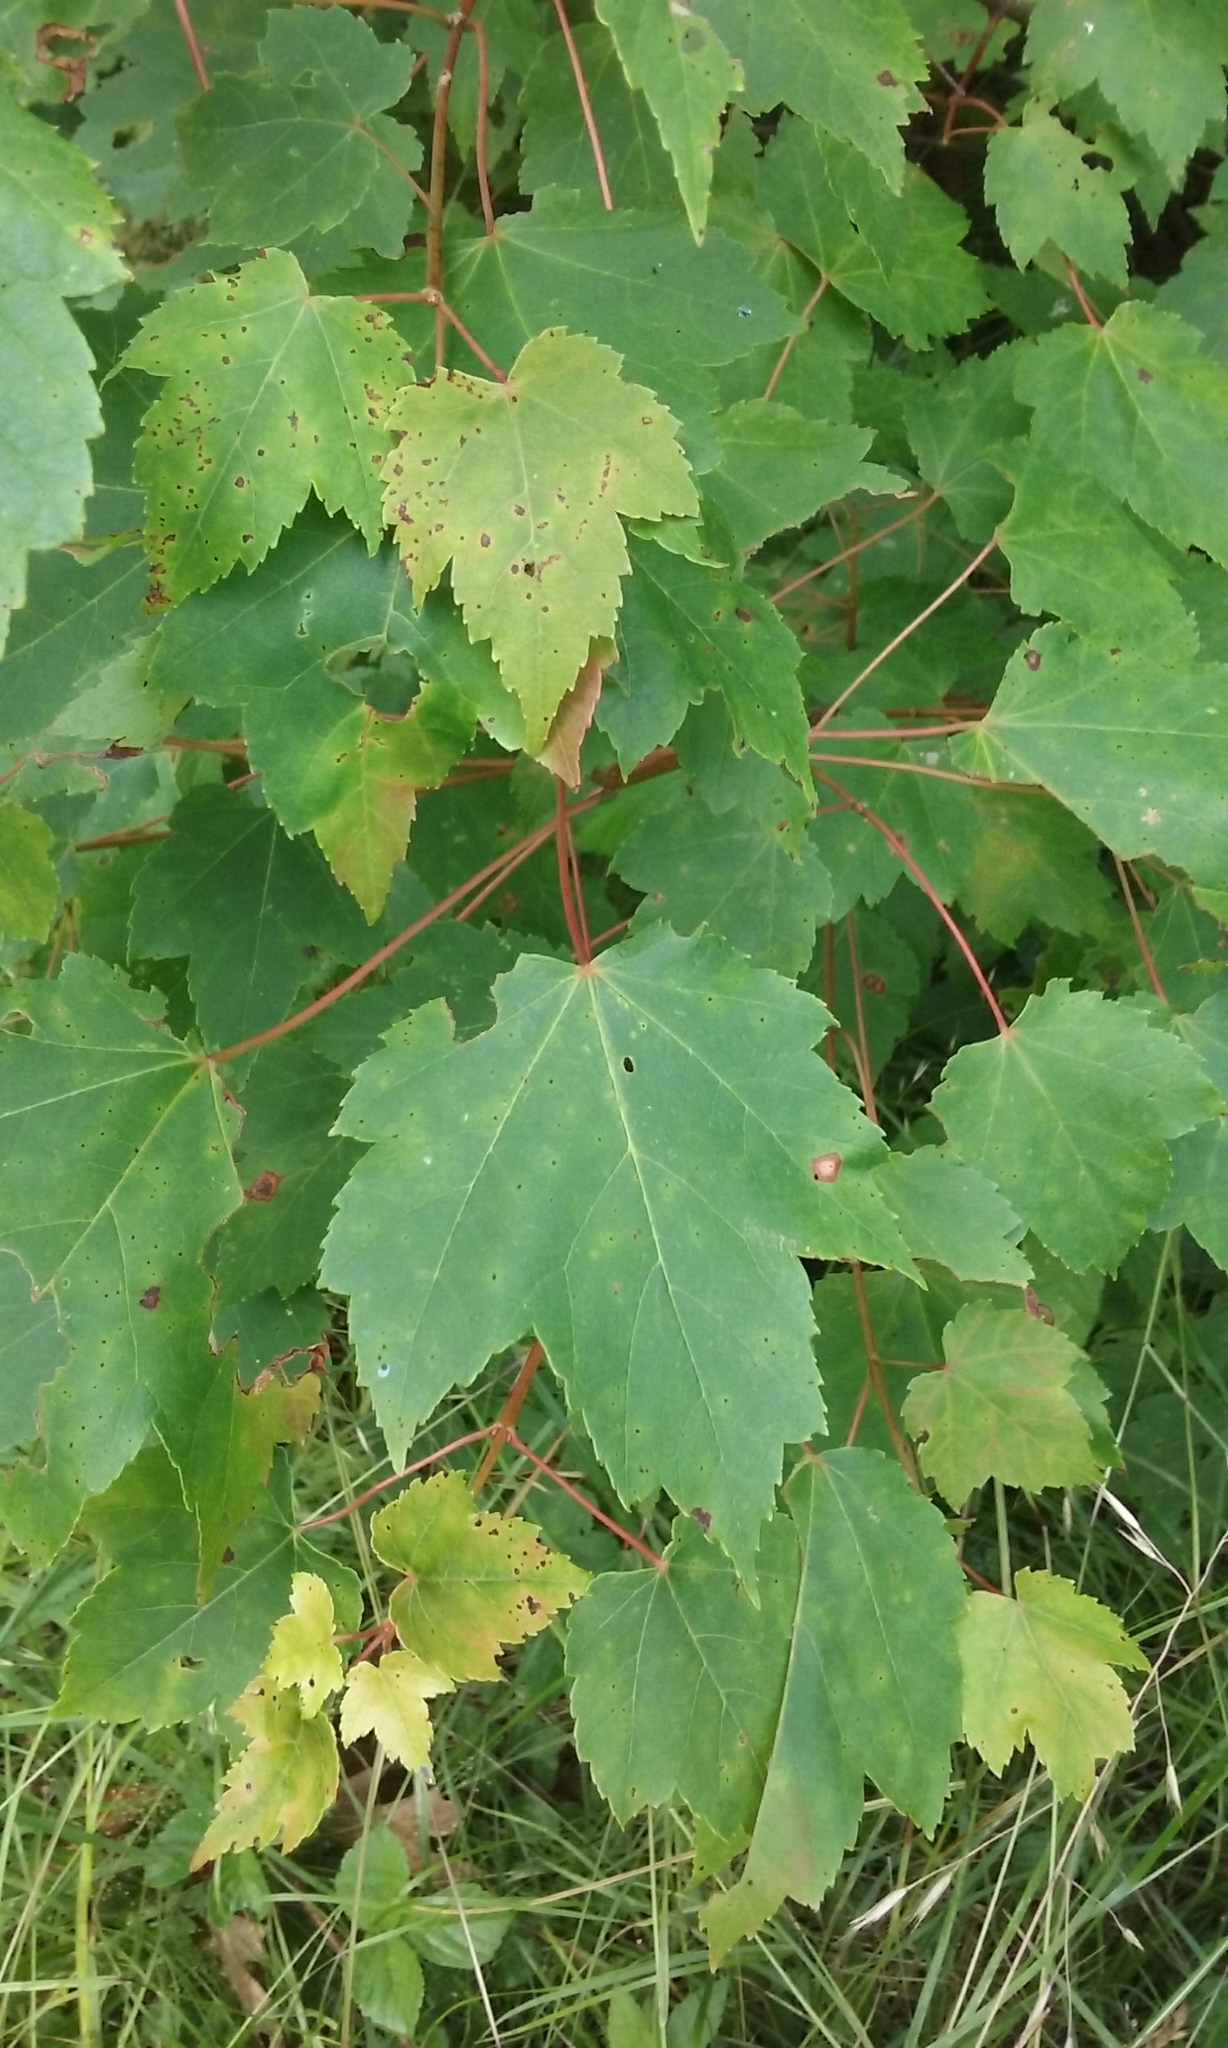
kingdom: Plantae
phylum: Tracheophyta
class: Magnoliopsida
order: Sapindales
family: Sapindaceae
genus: Acer
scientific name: Acer rubrum
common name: Red maple
